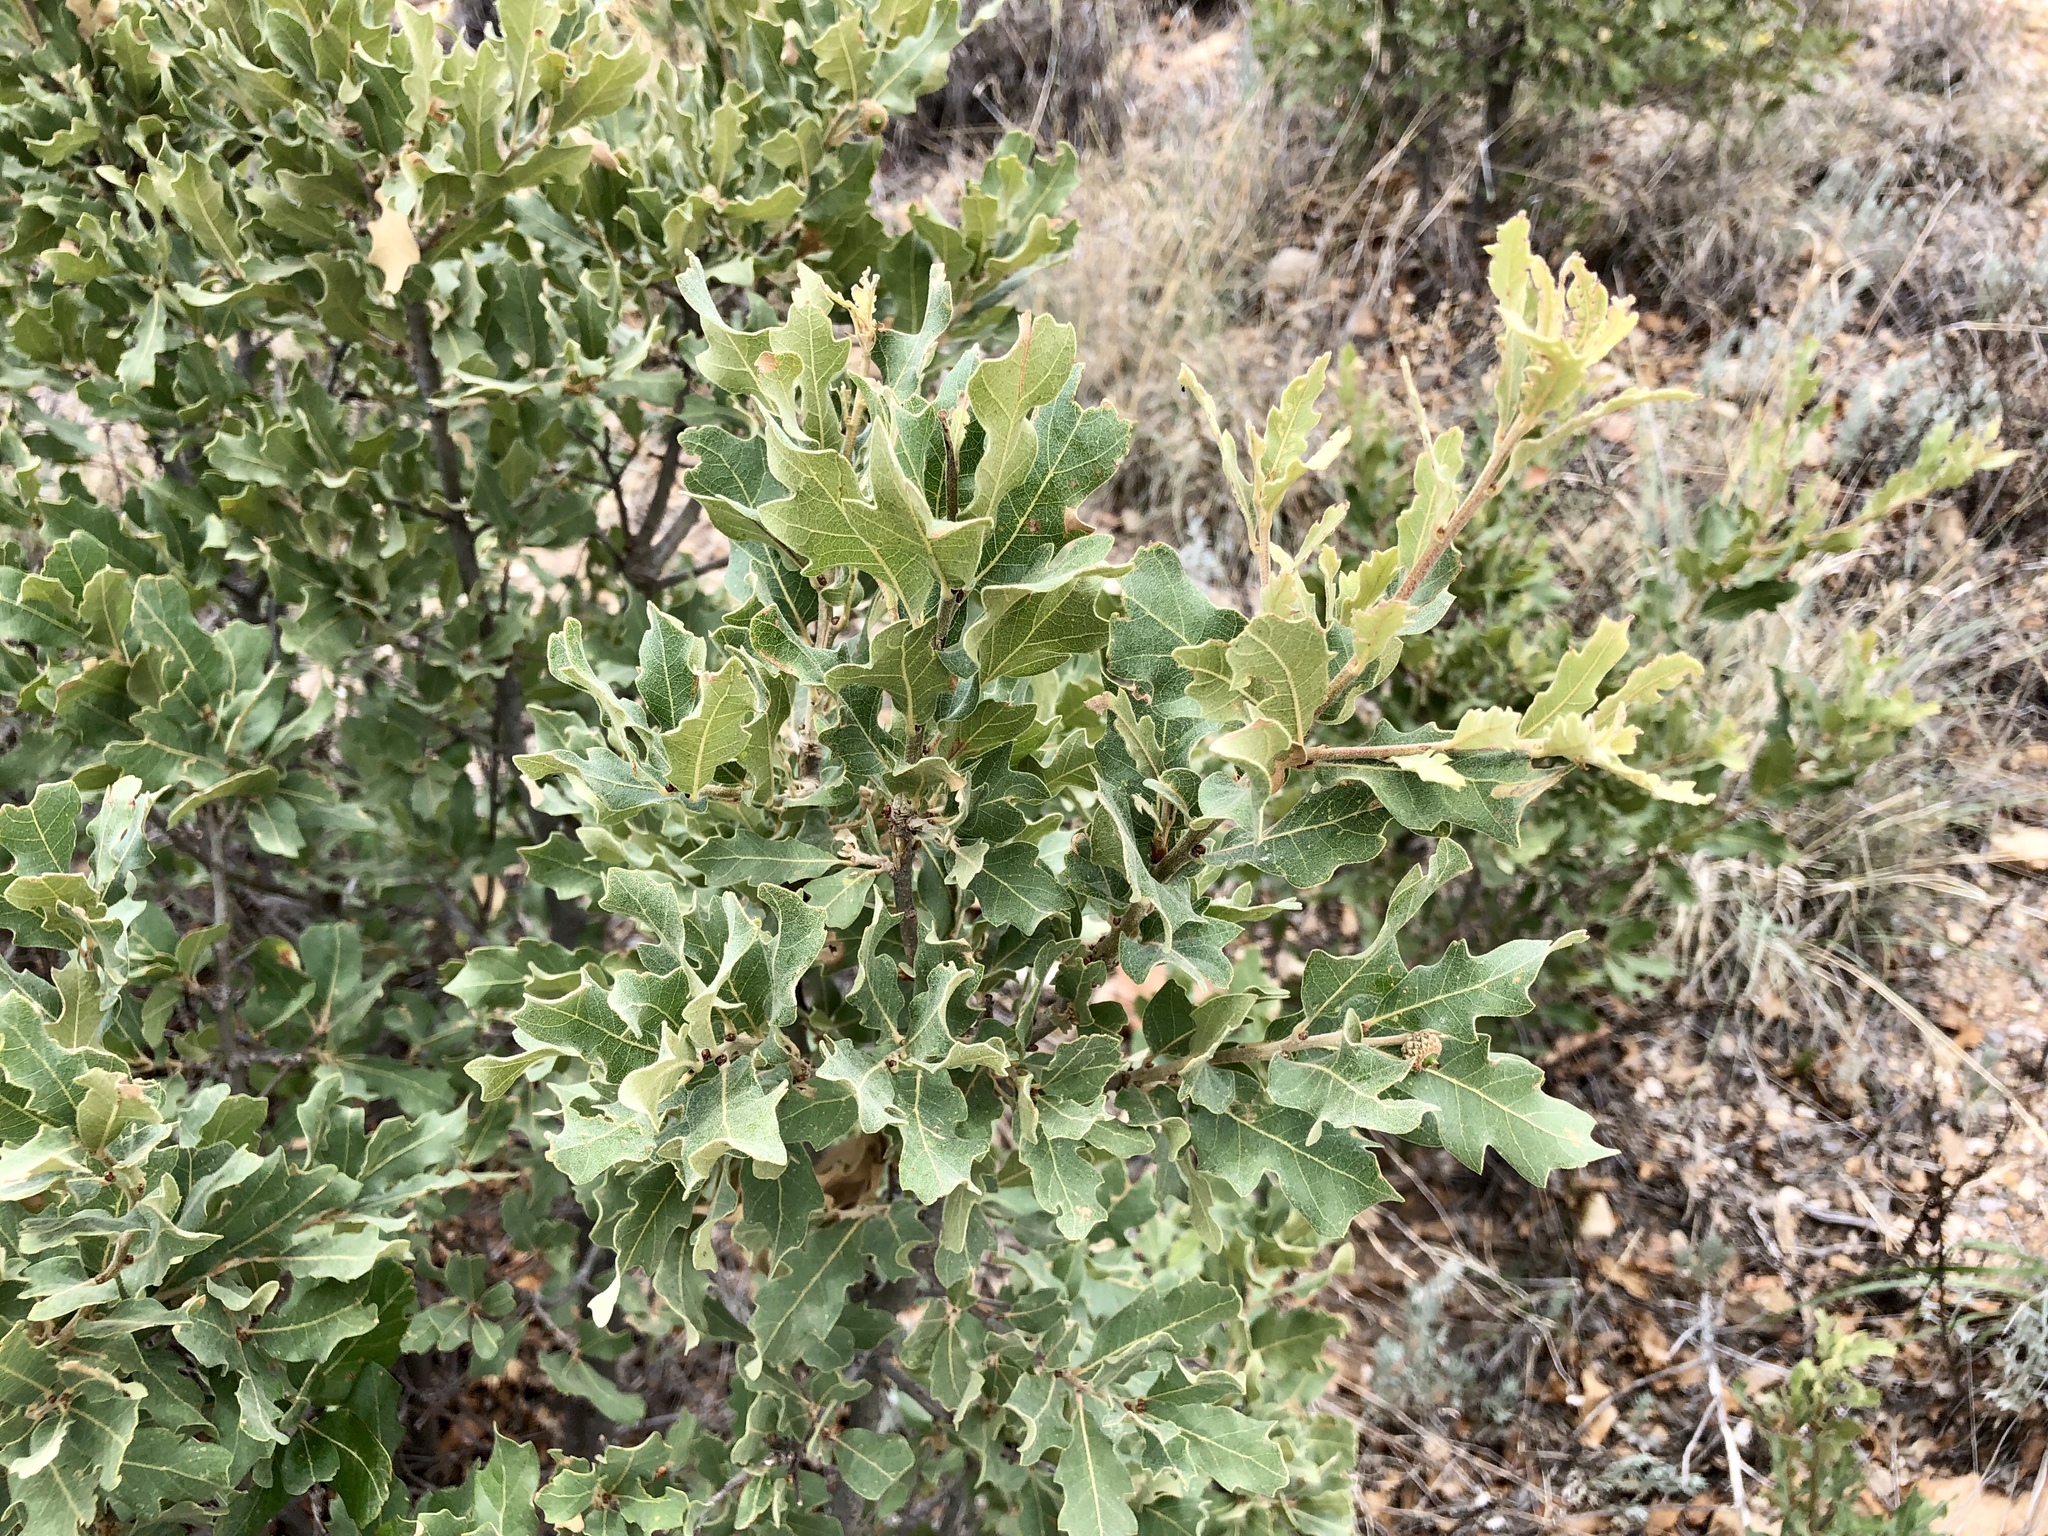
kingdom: Plantae
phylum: Tracheophyta
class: Magnoliopsida
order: Fagales
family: Fagaceae
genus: Quercus
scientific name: Quercus havardii
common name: Shinnery oak
